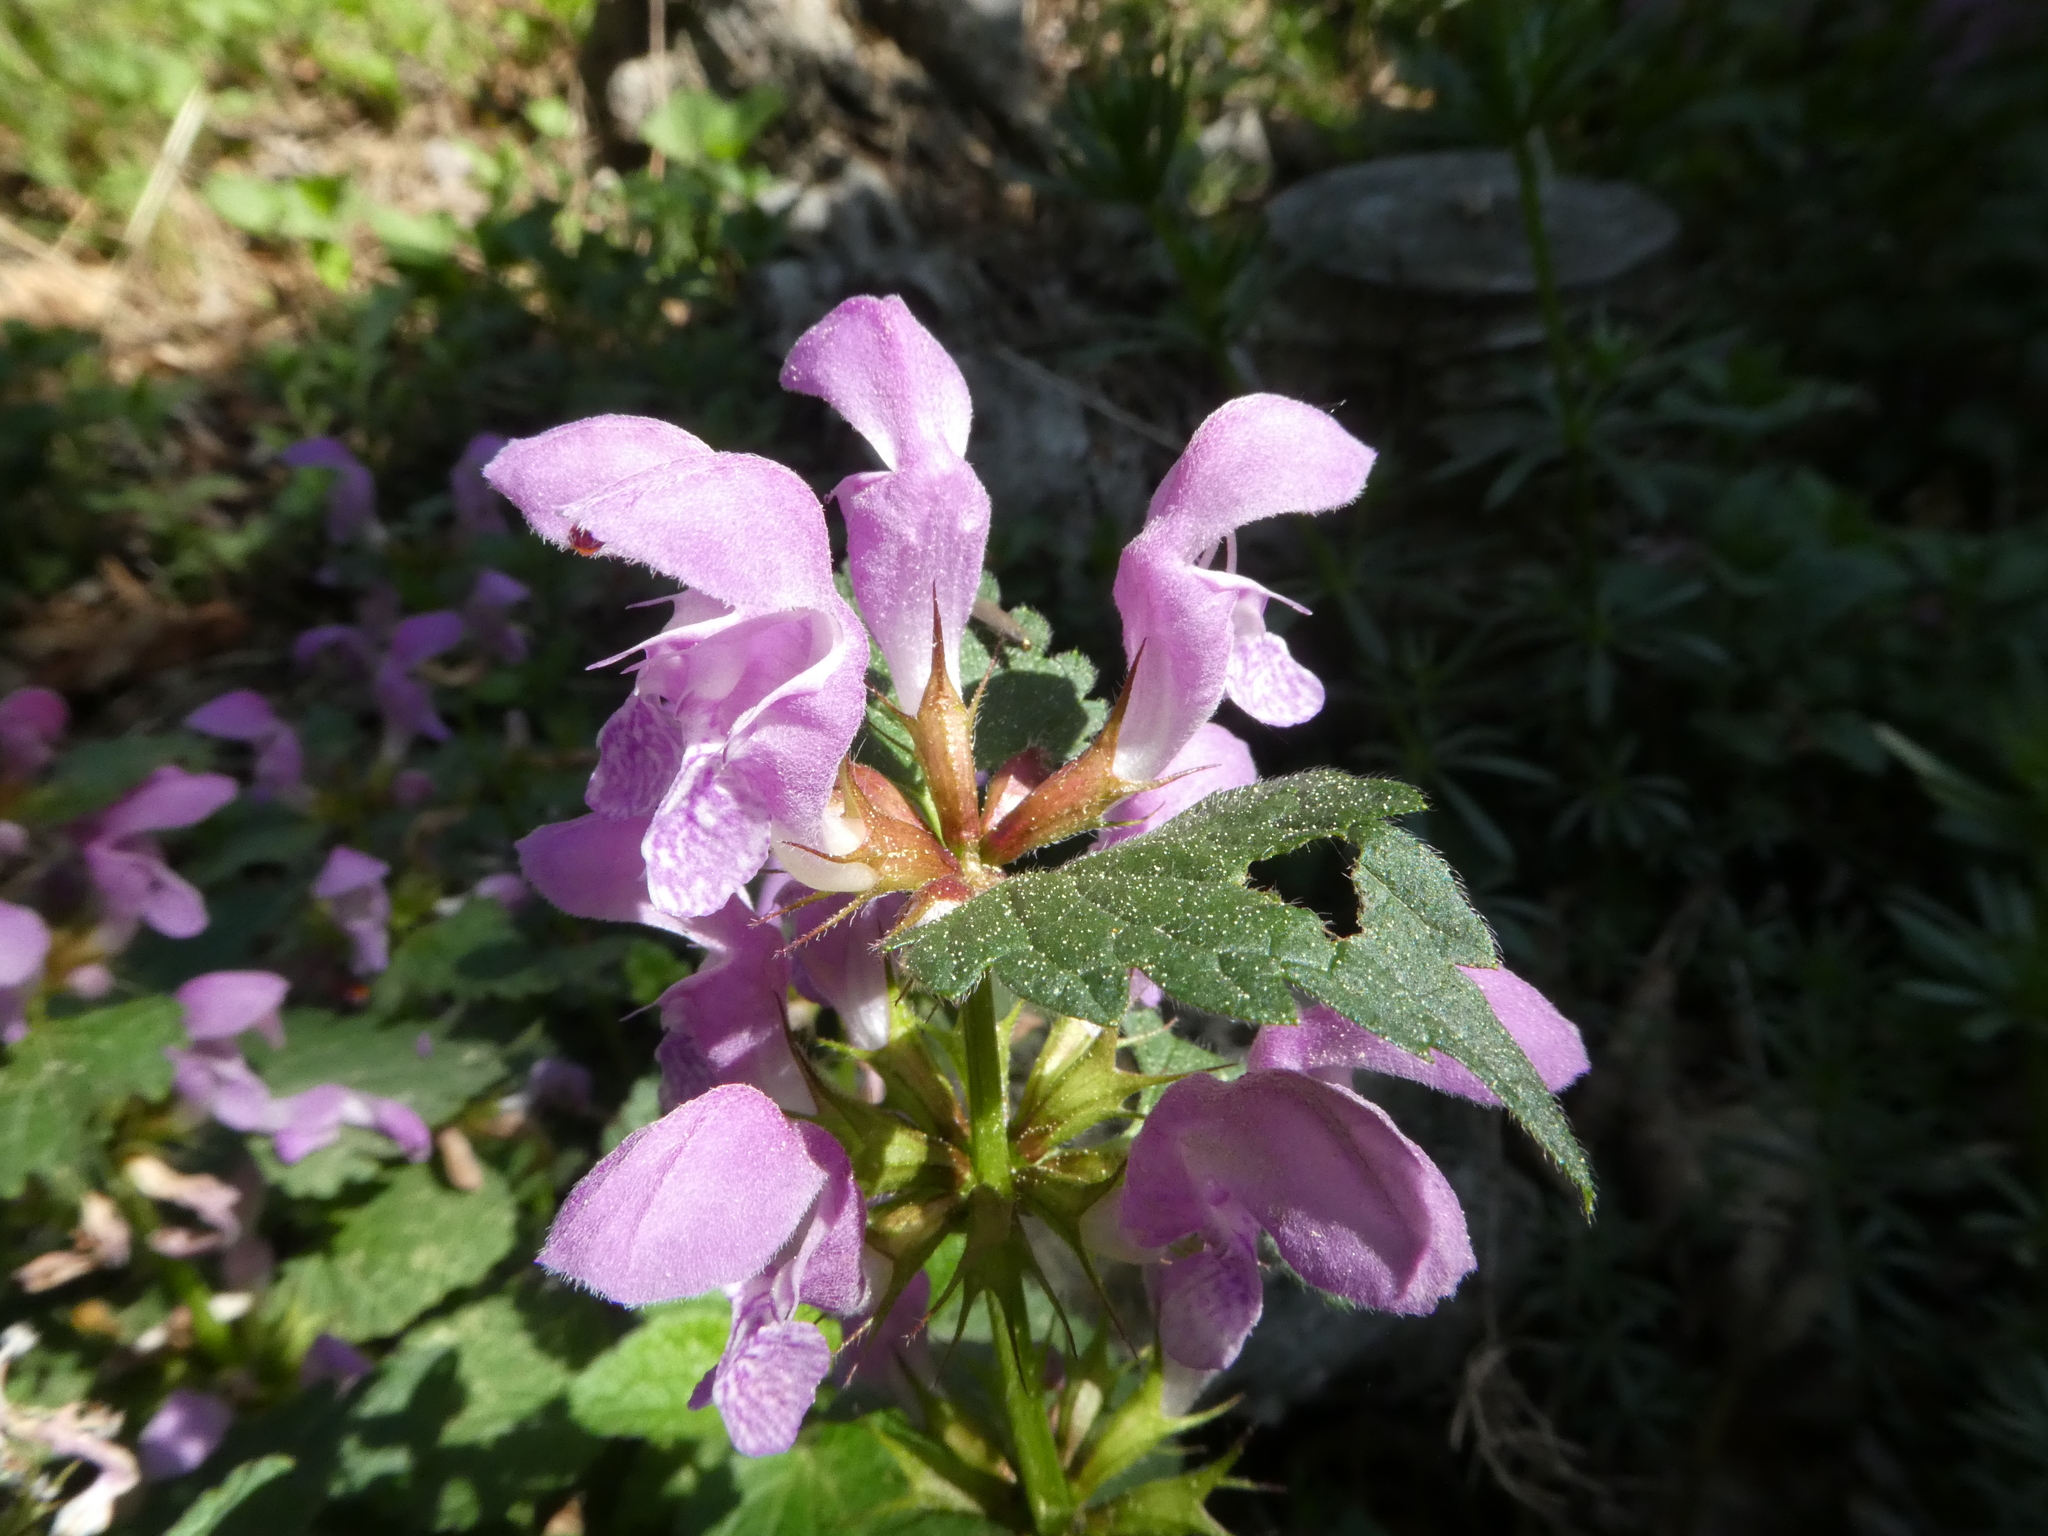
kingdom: Plantae
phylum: Tracheophyta
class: Magnoliopsida
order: Lamiales
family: Lamiaceae
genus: Lamium
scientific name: Lamium maculatum
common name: Spotted dead-nettle
